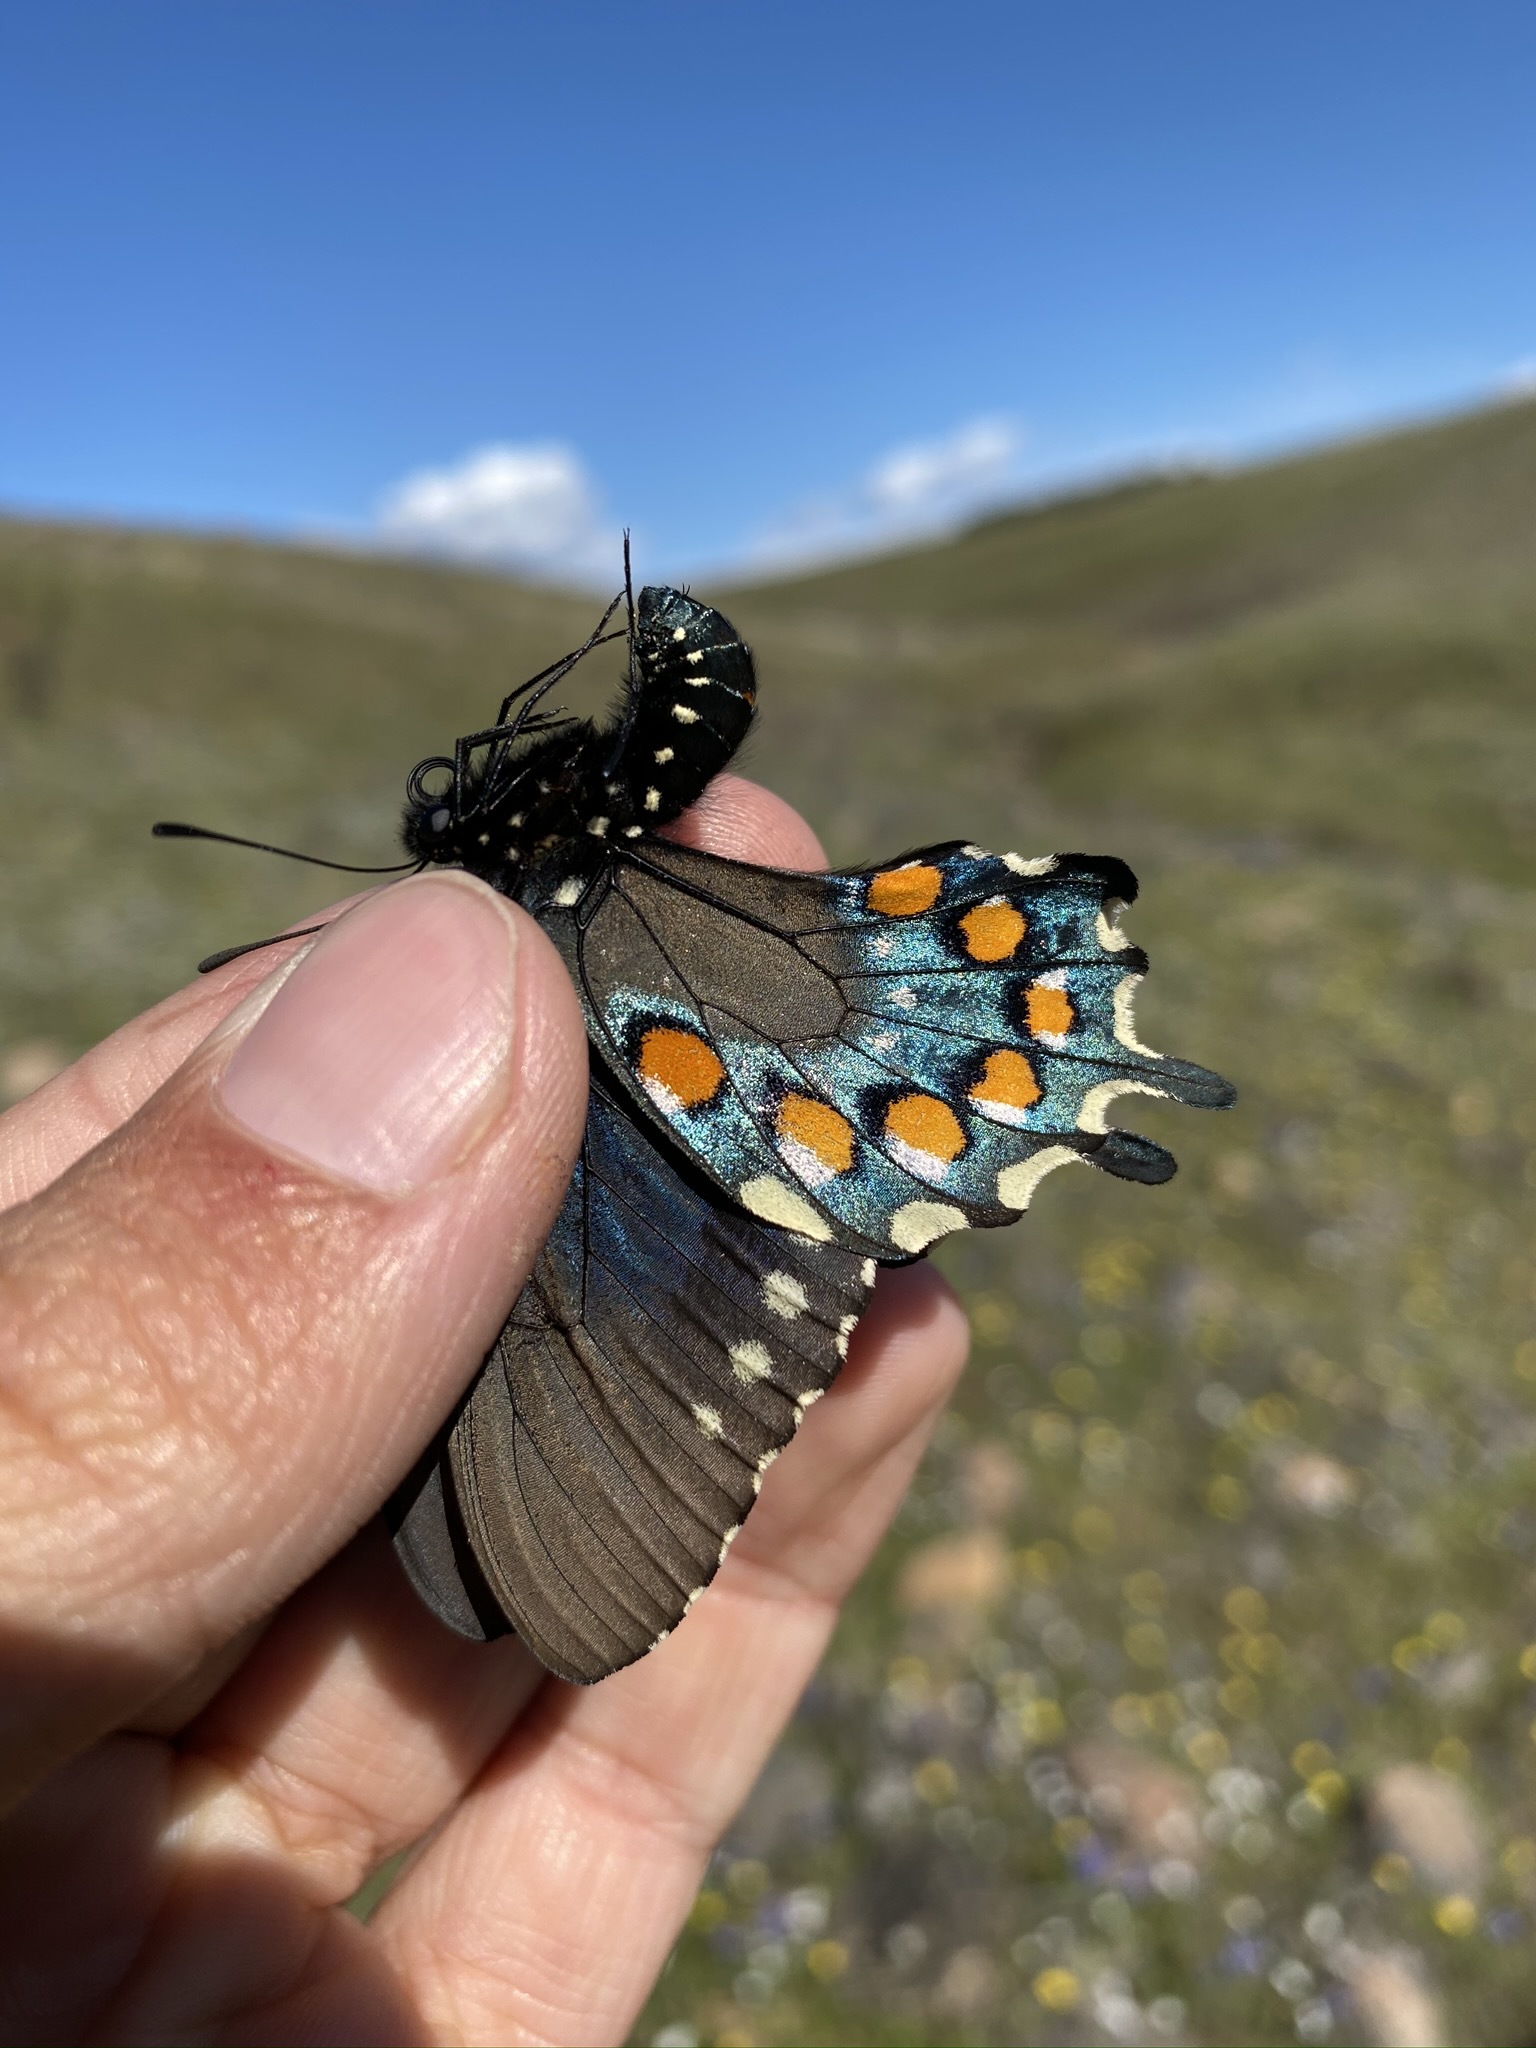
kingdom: Animalia
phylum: Arthropoda
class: Insecta
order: Lepidoptera
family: Papilionidae
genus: Battus
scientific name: Battus philenor
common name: Pipevine swallowtail
